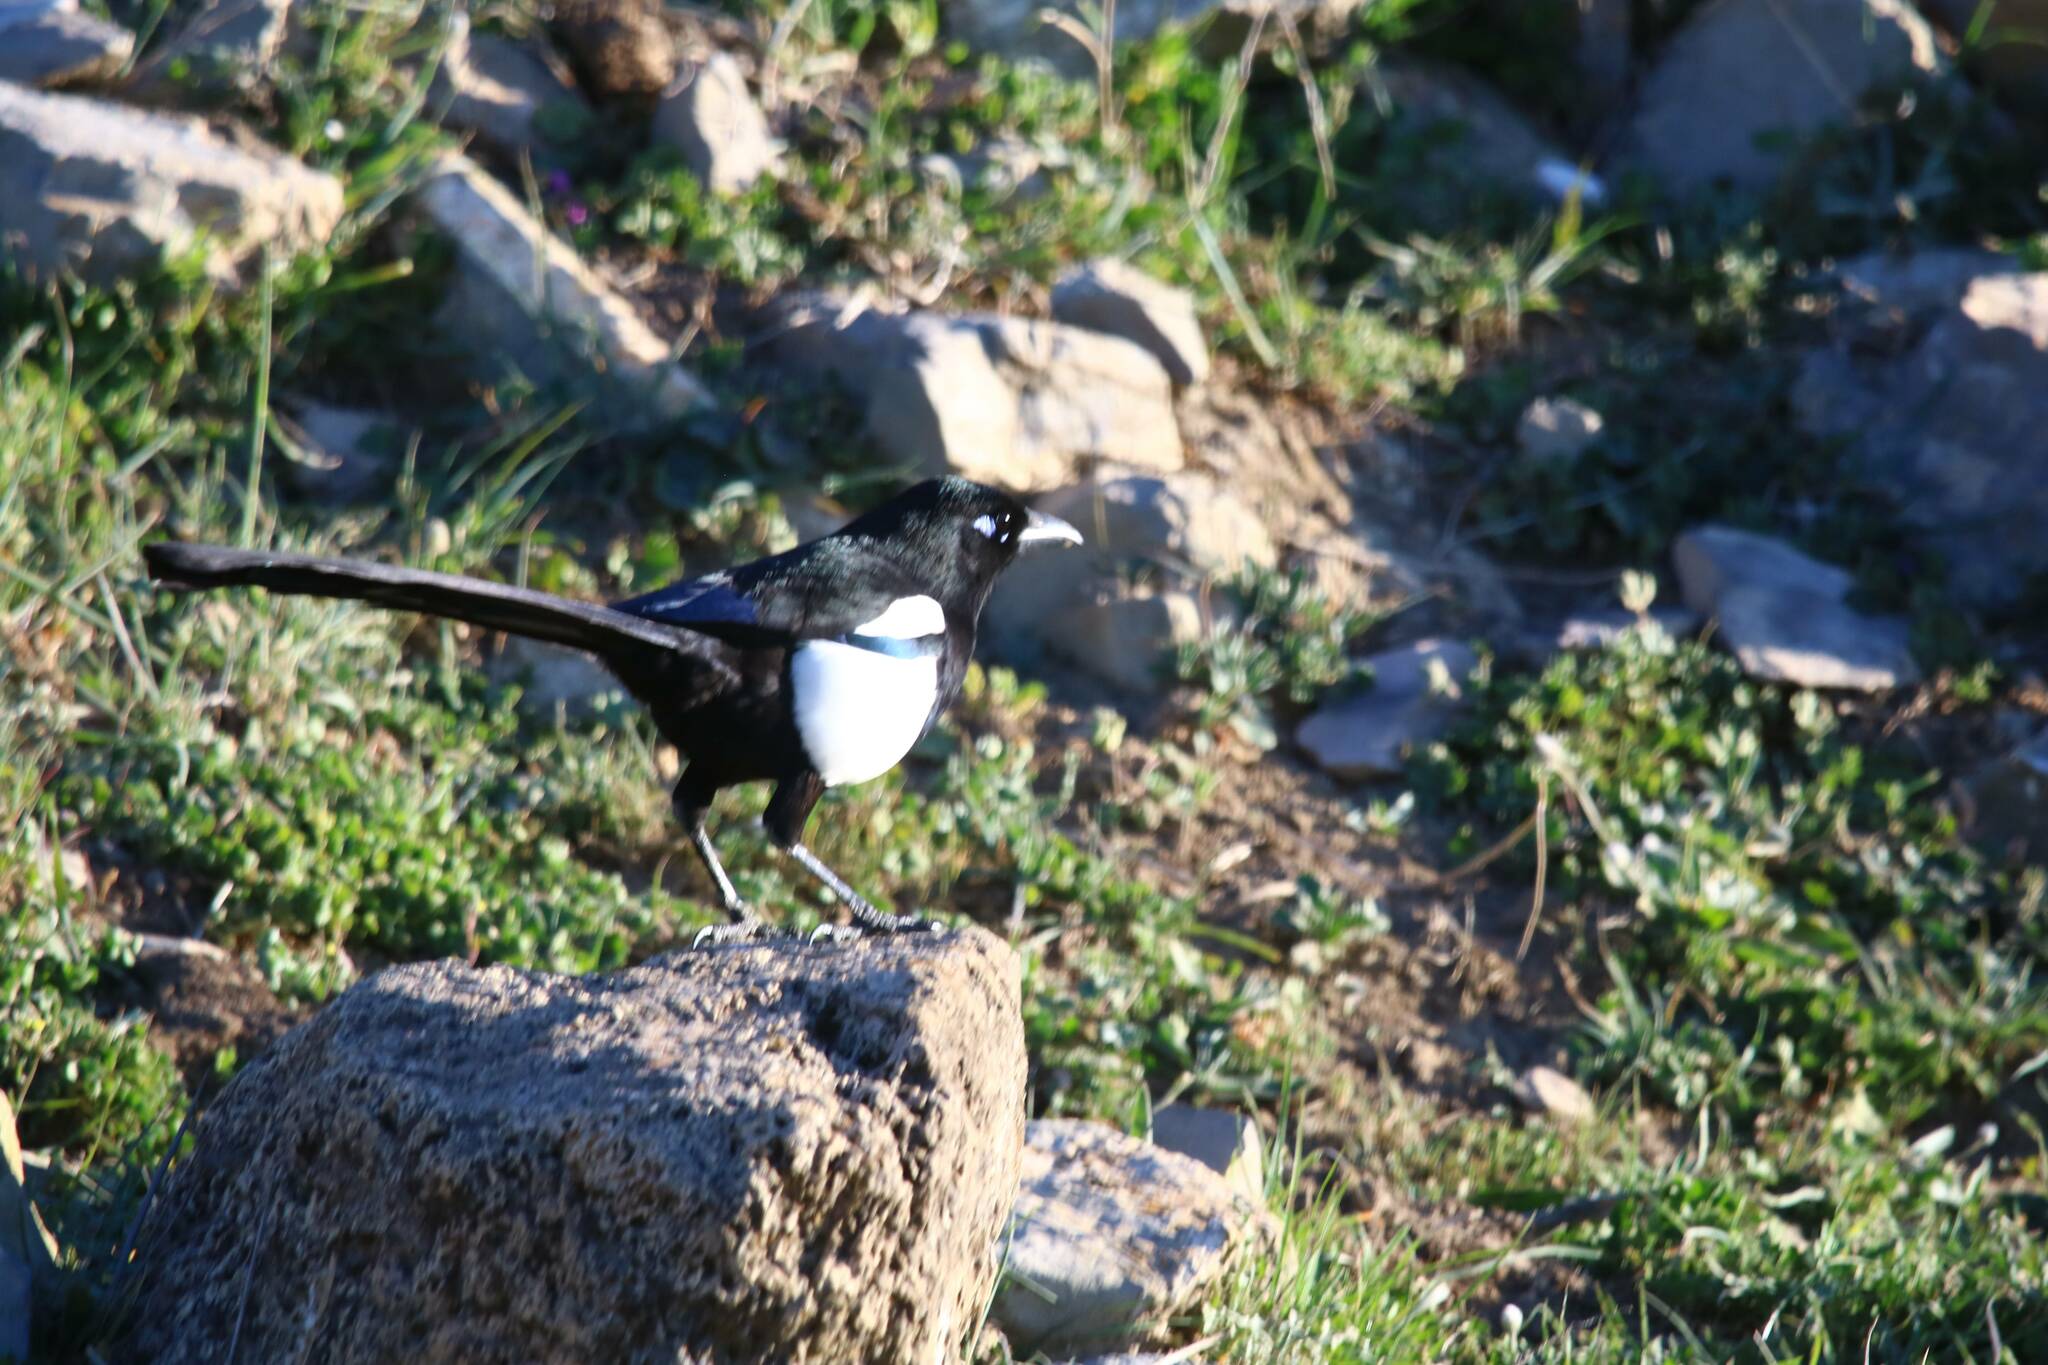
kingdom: Animalia
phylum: Chordata
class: Aves
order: Passeriformes
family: Corvidae
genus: Pica
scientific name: Pica mauritanica
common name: Maghreb magpie
